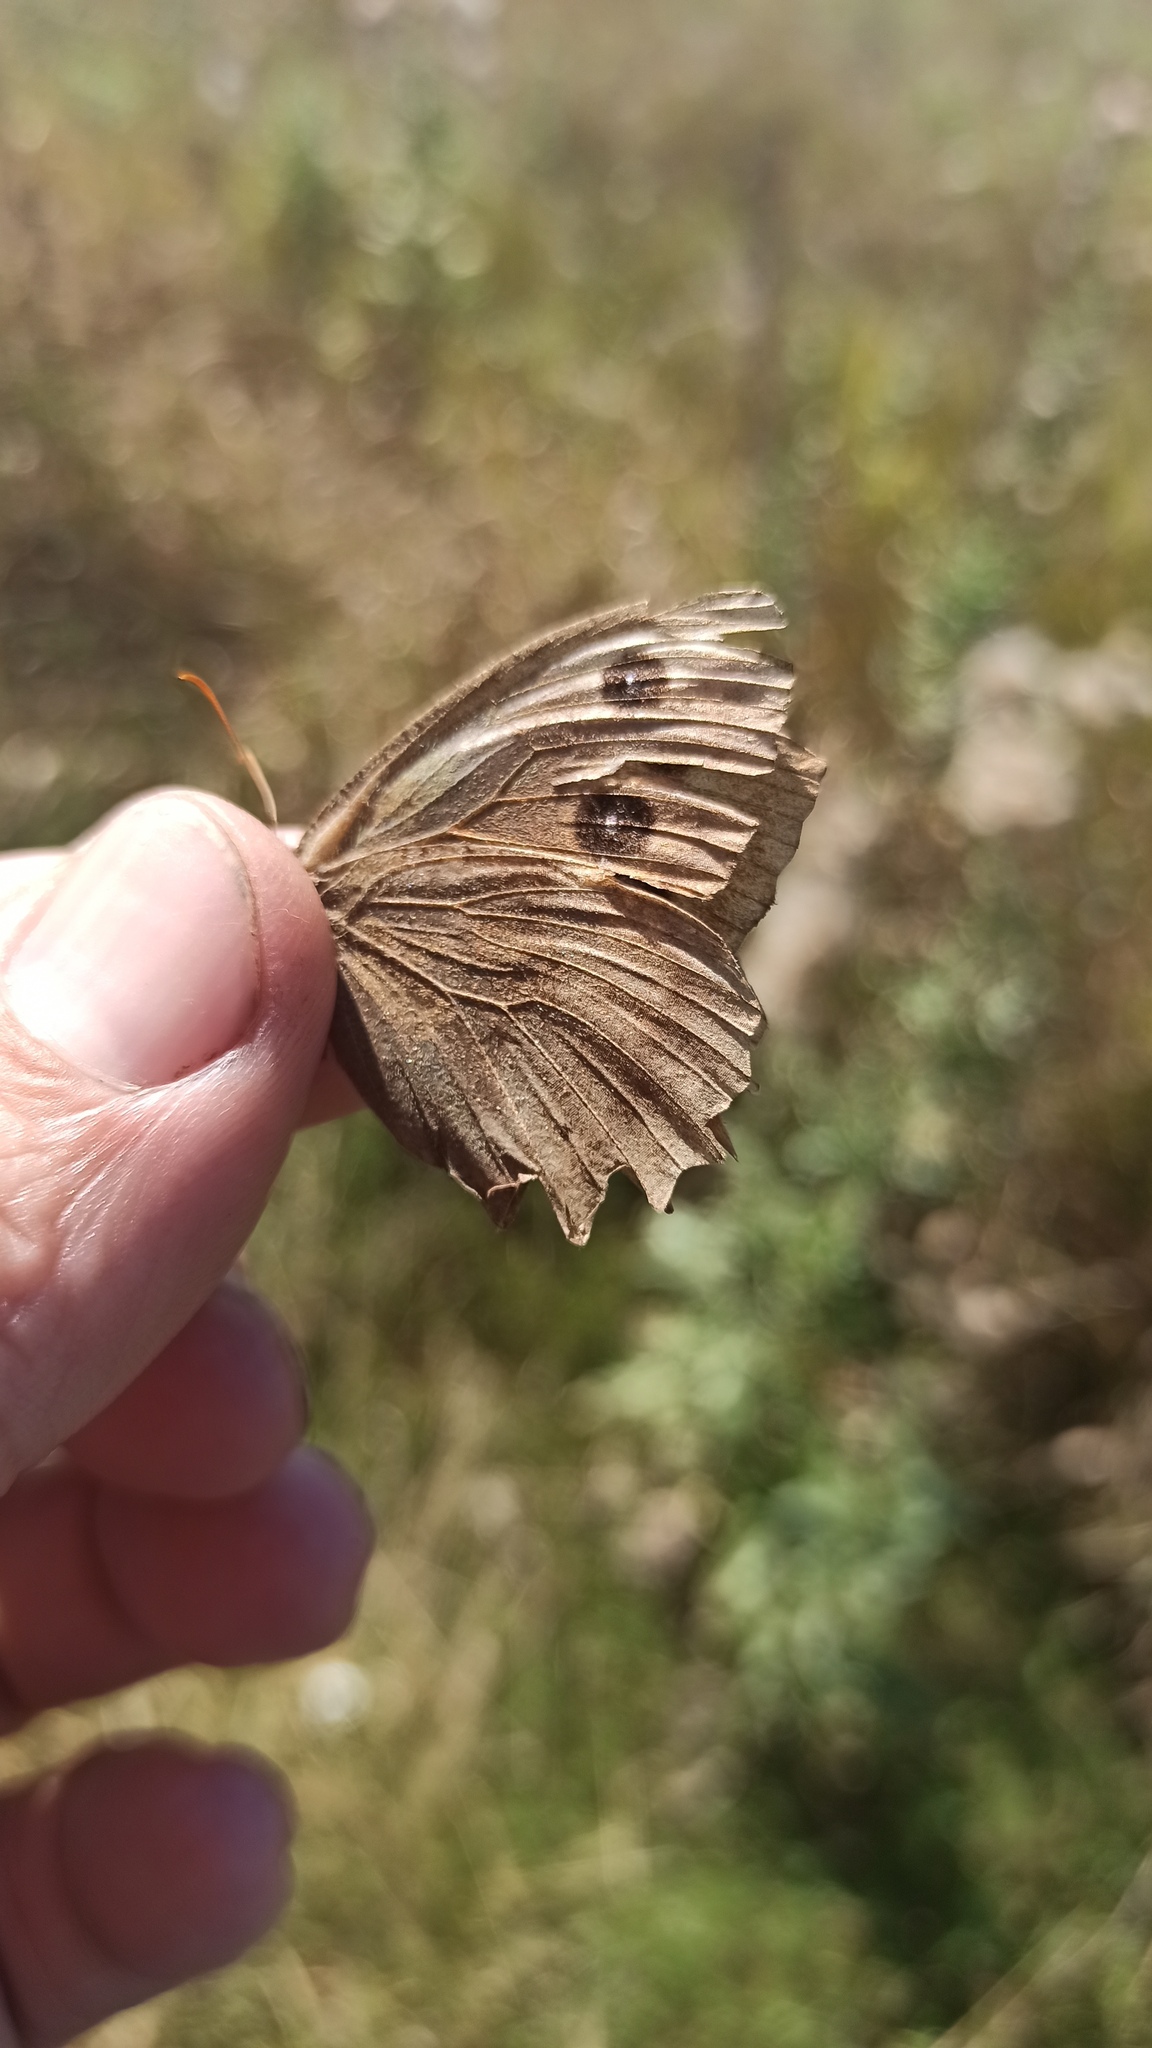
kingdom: Animalia
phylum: Arthropoda
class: Insecta
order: Lepidoptera
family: Nymphalidae
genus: Minois
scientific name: Minois dryas
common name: Dryad
